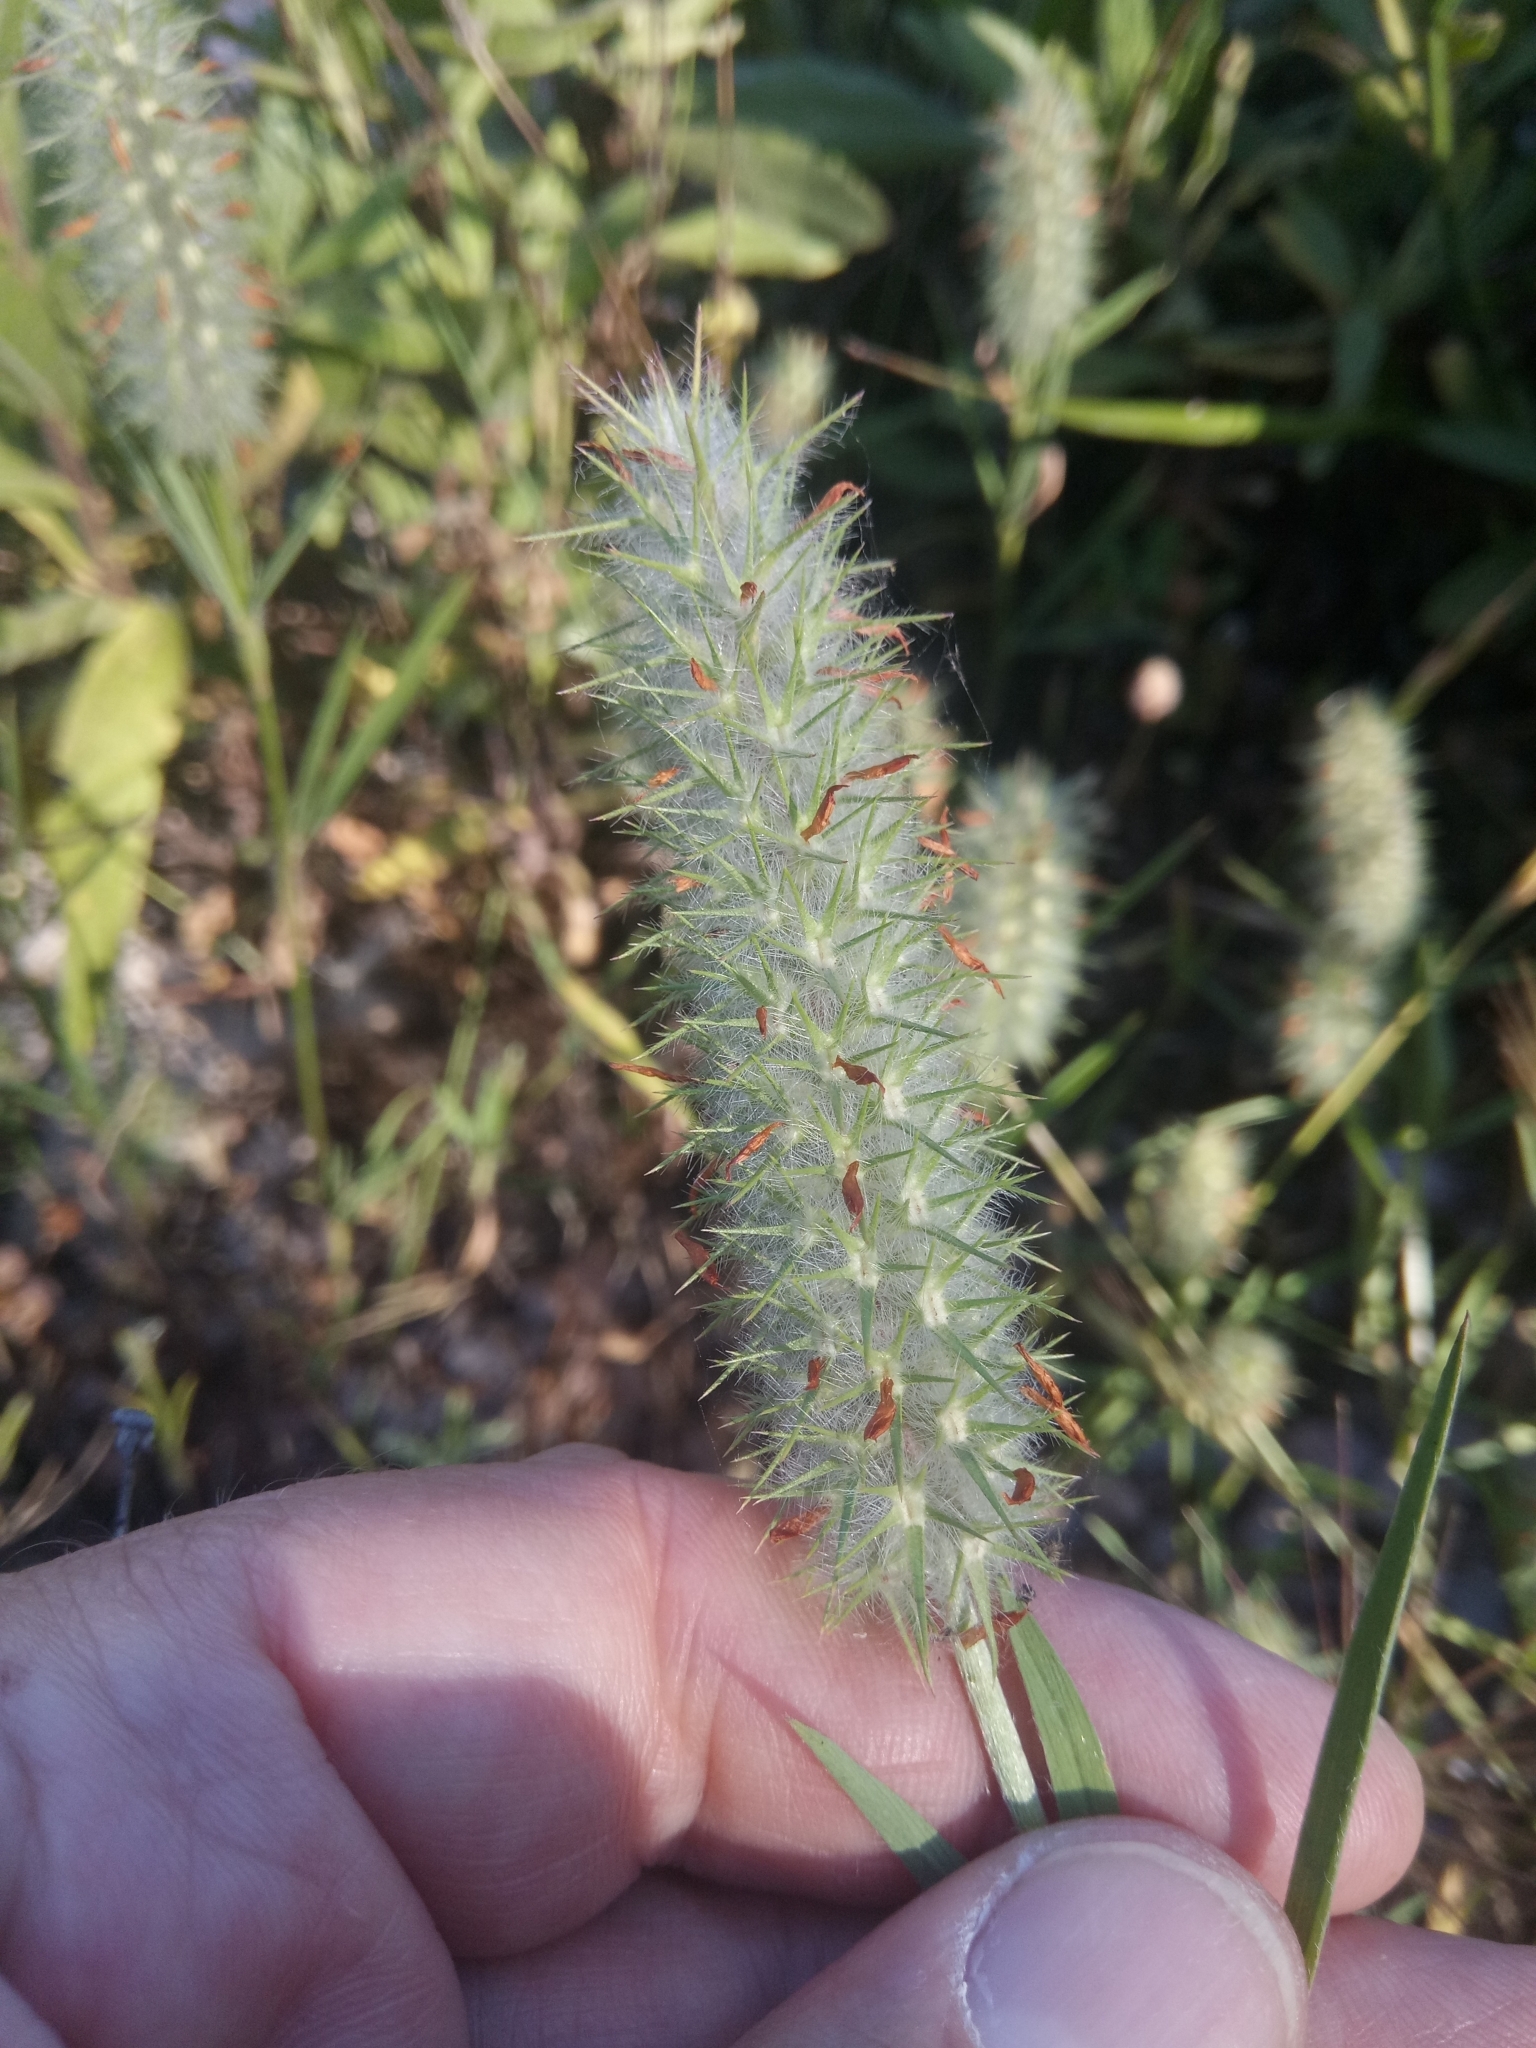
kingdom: Plantae
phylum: Tracheophyta
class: Magnoliopsida
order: Fabales
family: Fabaceae
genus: Trifolium
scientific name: Trifolium angustifolium
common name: Narrow clover
